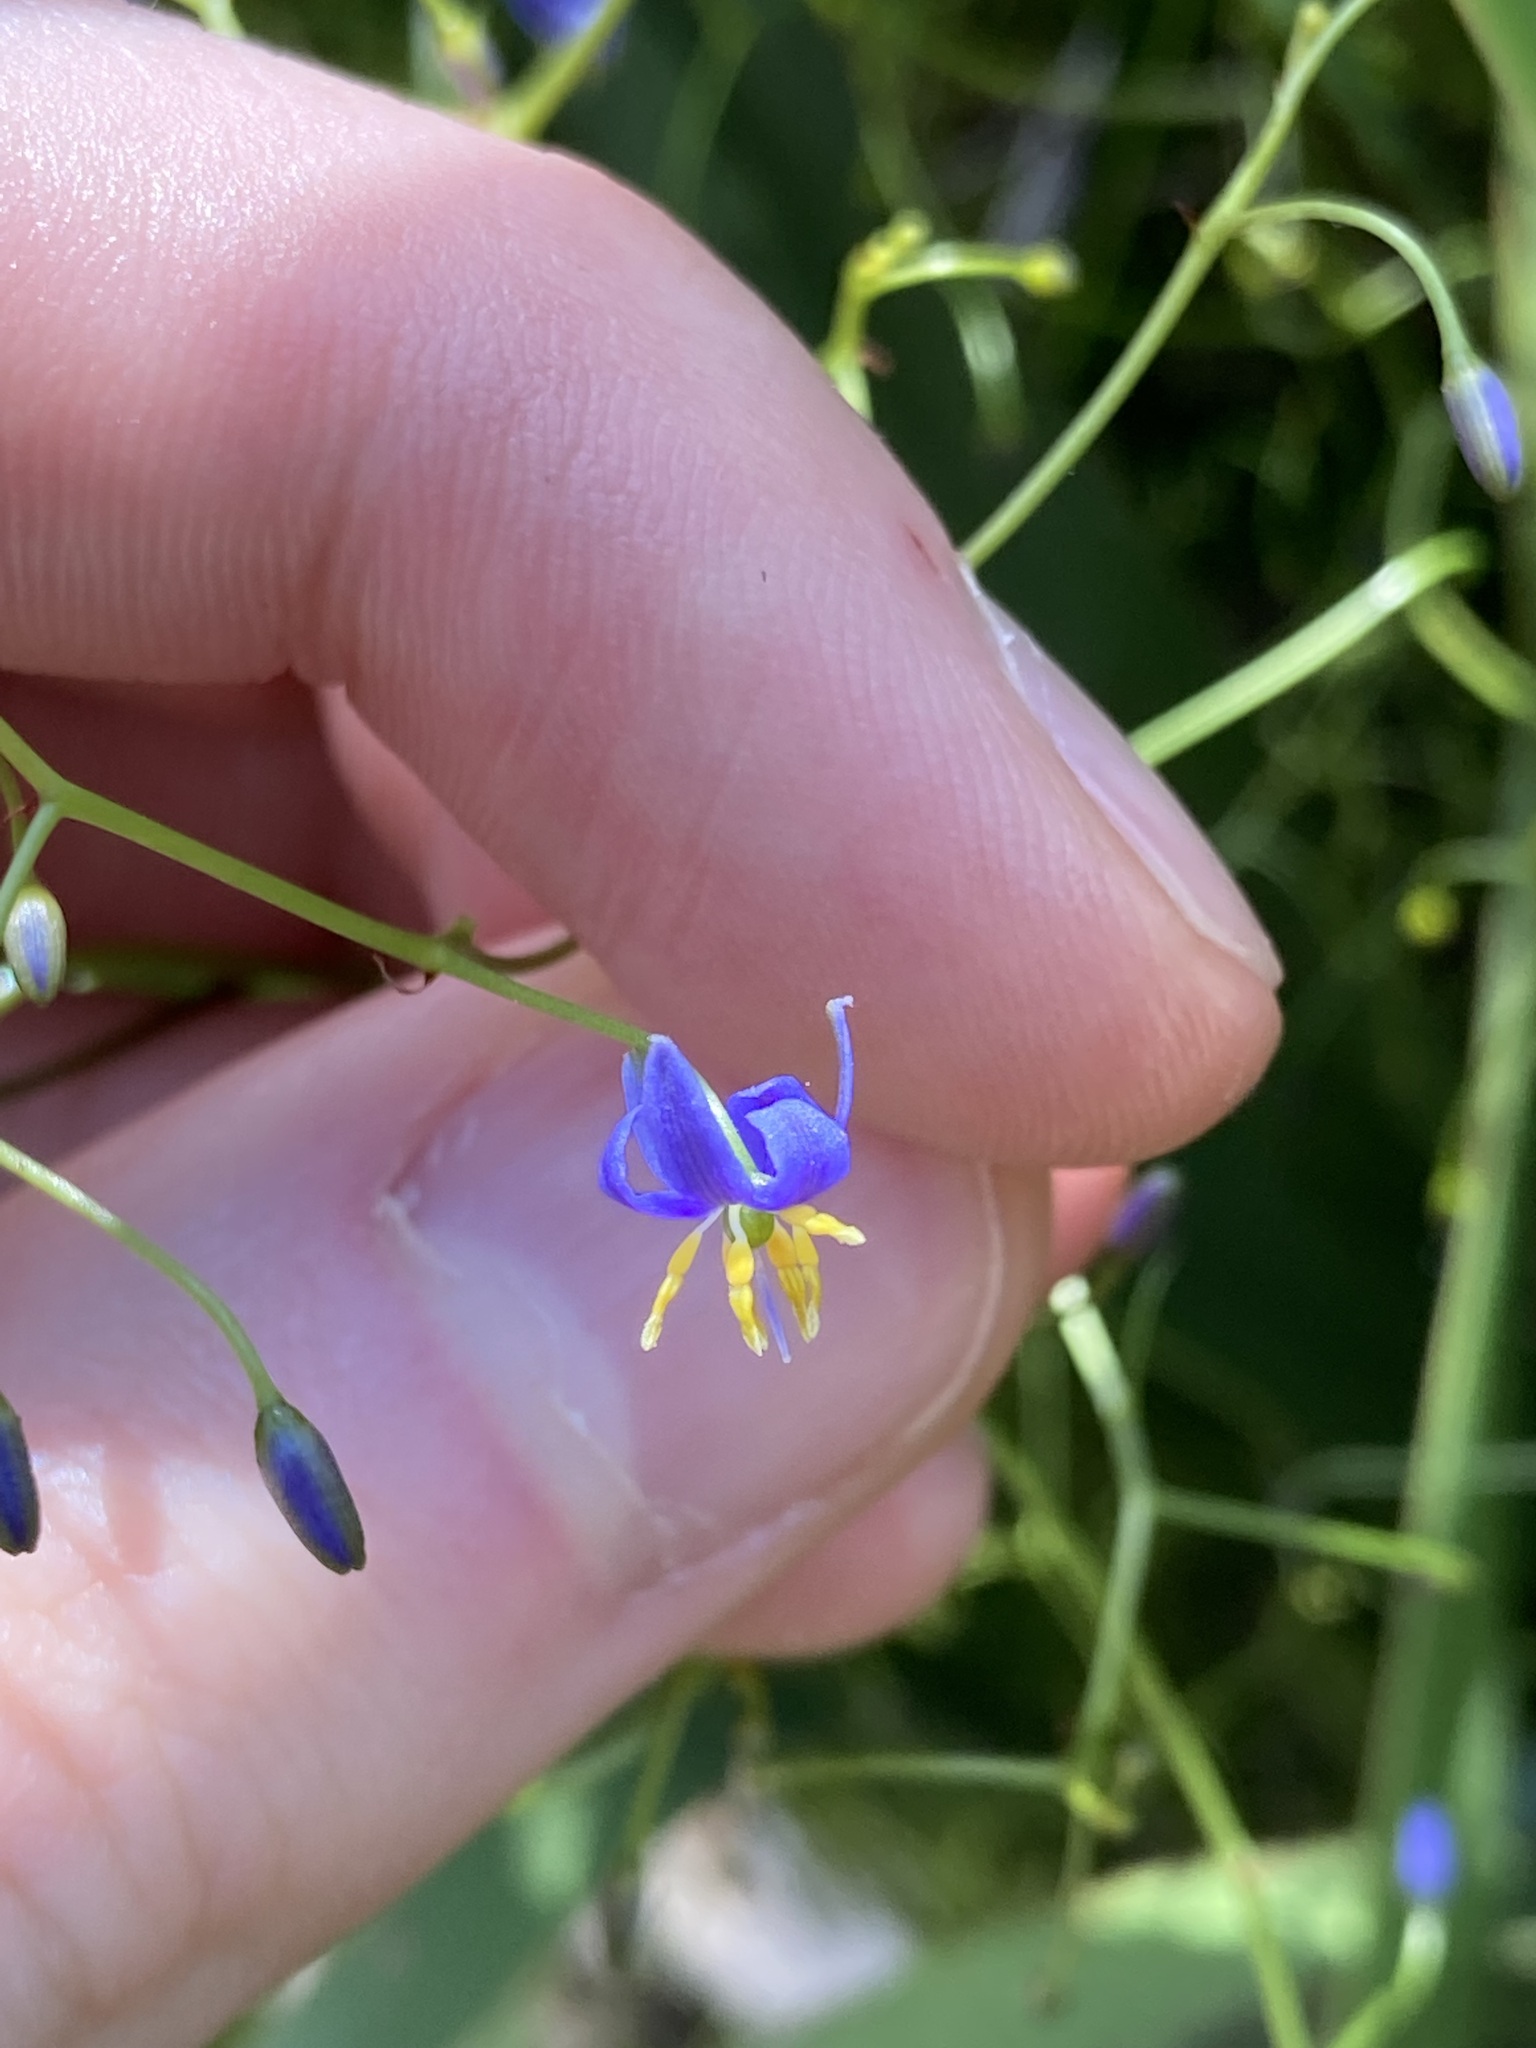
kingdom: Plantae
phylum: Tracheophyta
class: Liliopsida
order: Asparagales
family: Asphodelaceae
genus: Dianella
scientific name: Dianella brevipedunculata
